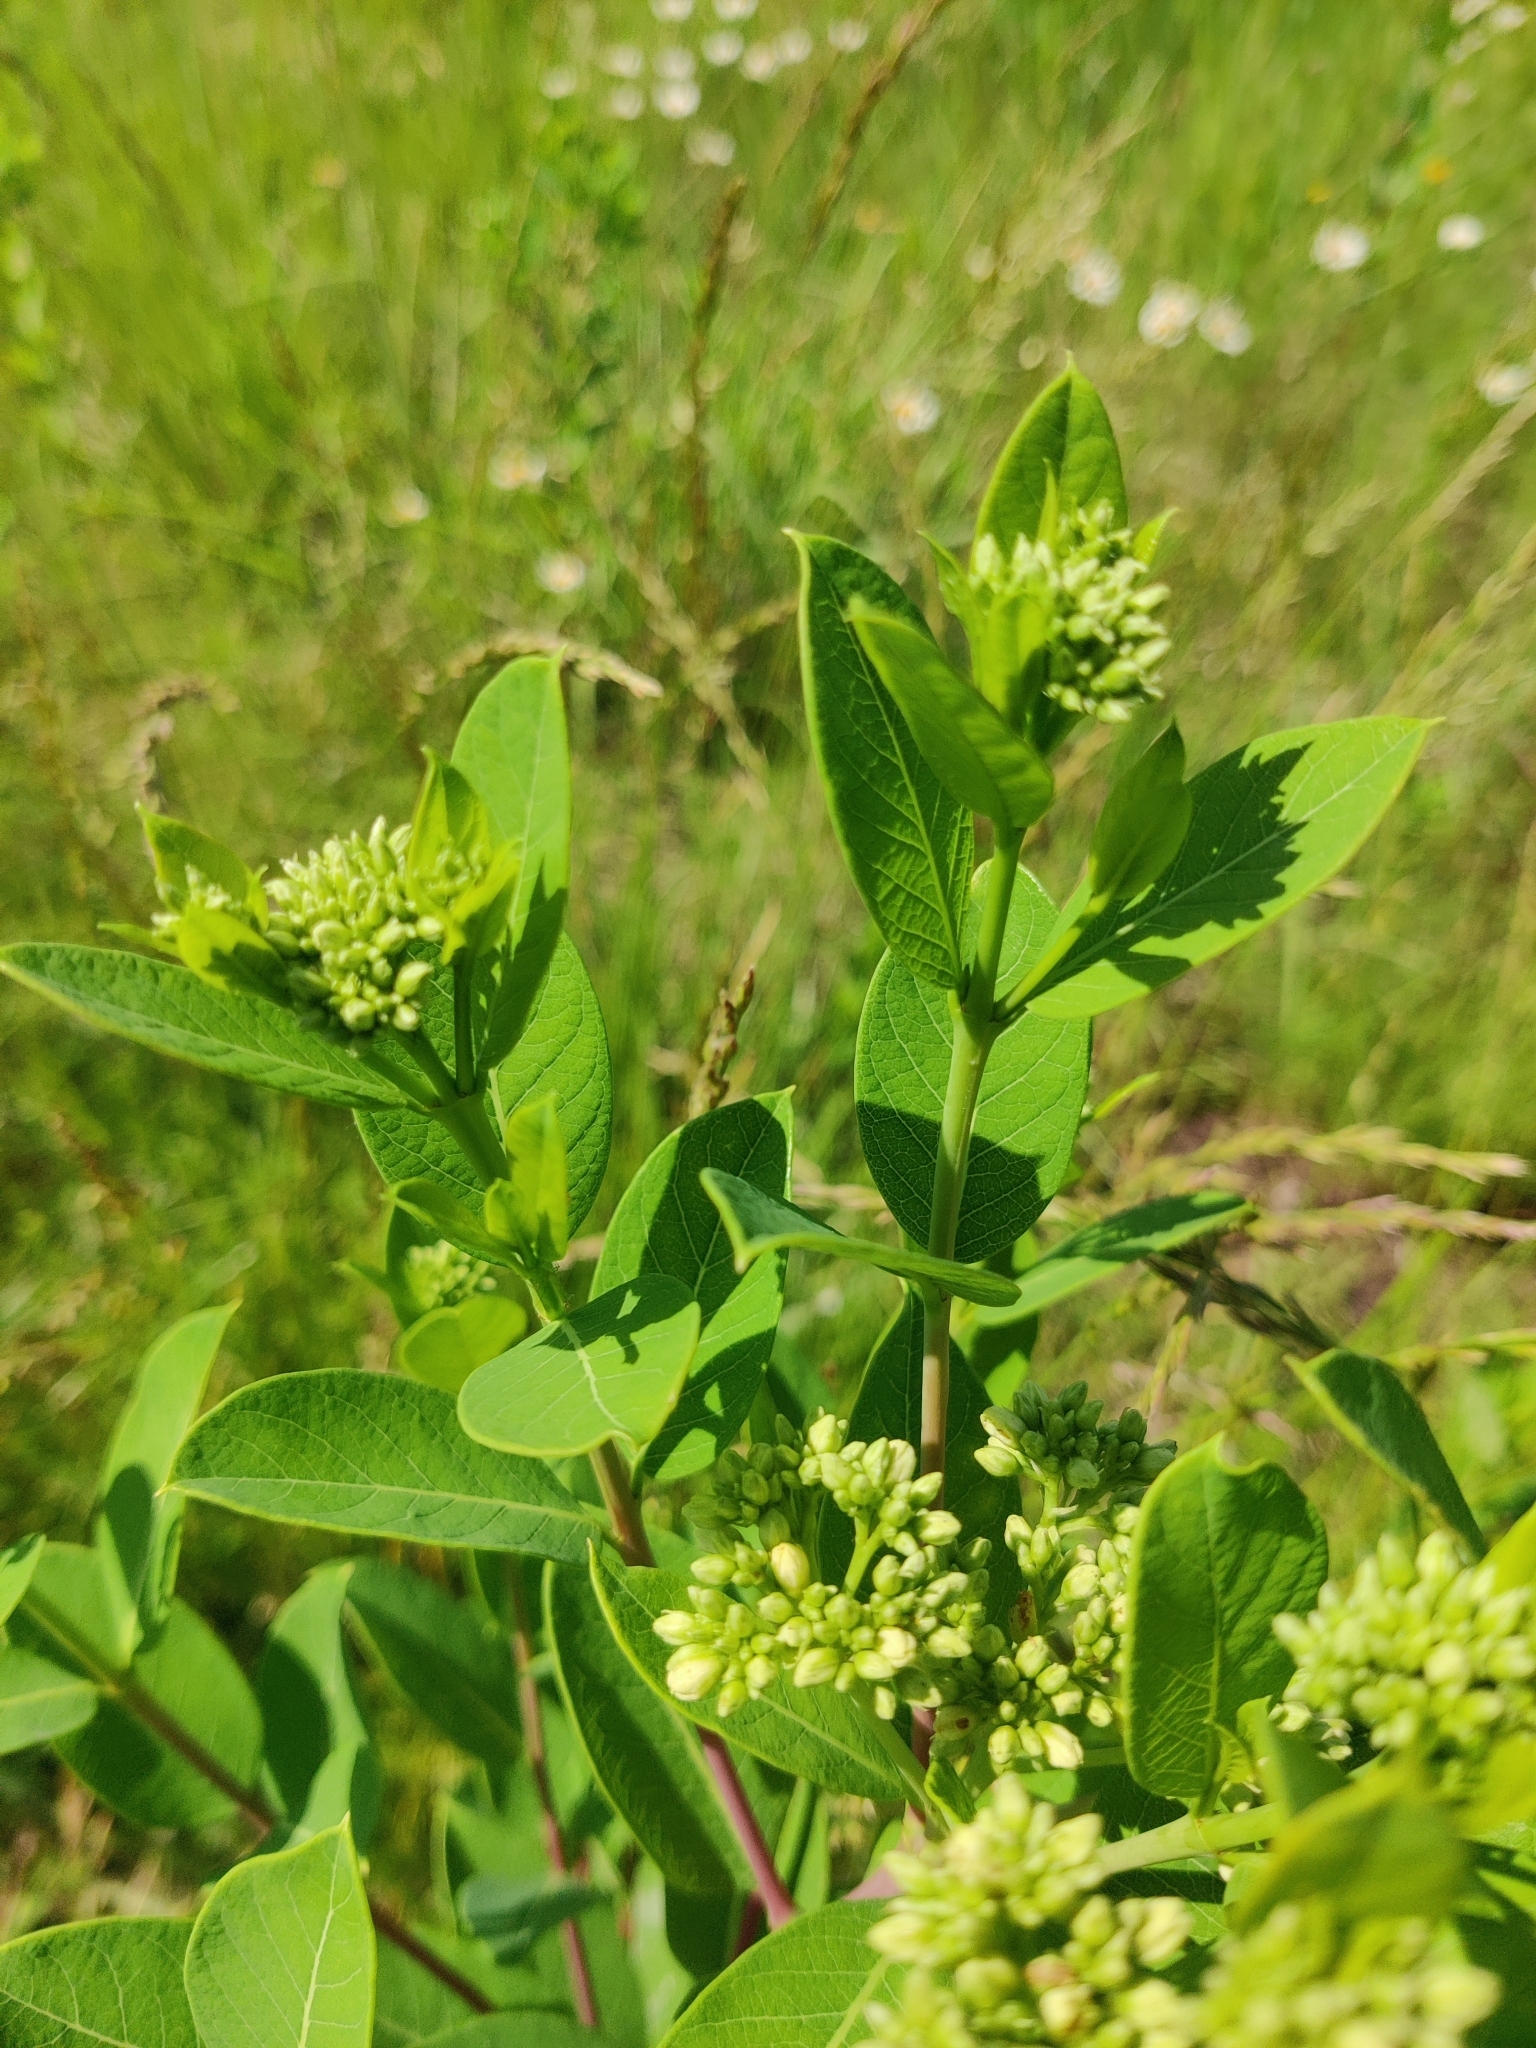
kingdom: Plantae
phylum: Tracheophyta
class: Magnoliopsida
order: Gentianales
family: Apocynaceae
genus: Apocynum
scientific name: Apocynum cannabinum
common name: Hemp dogbane
